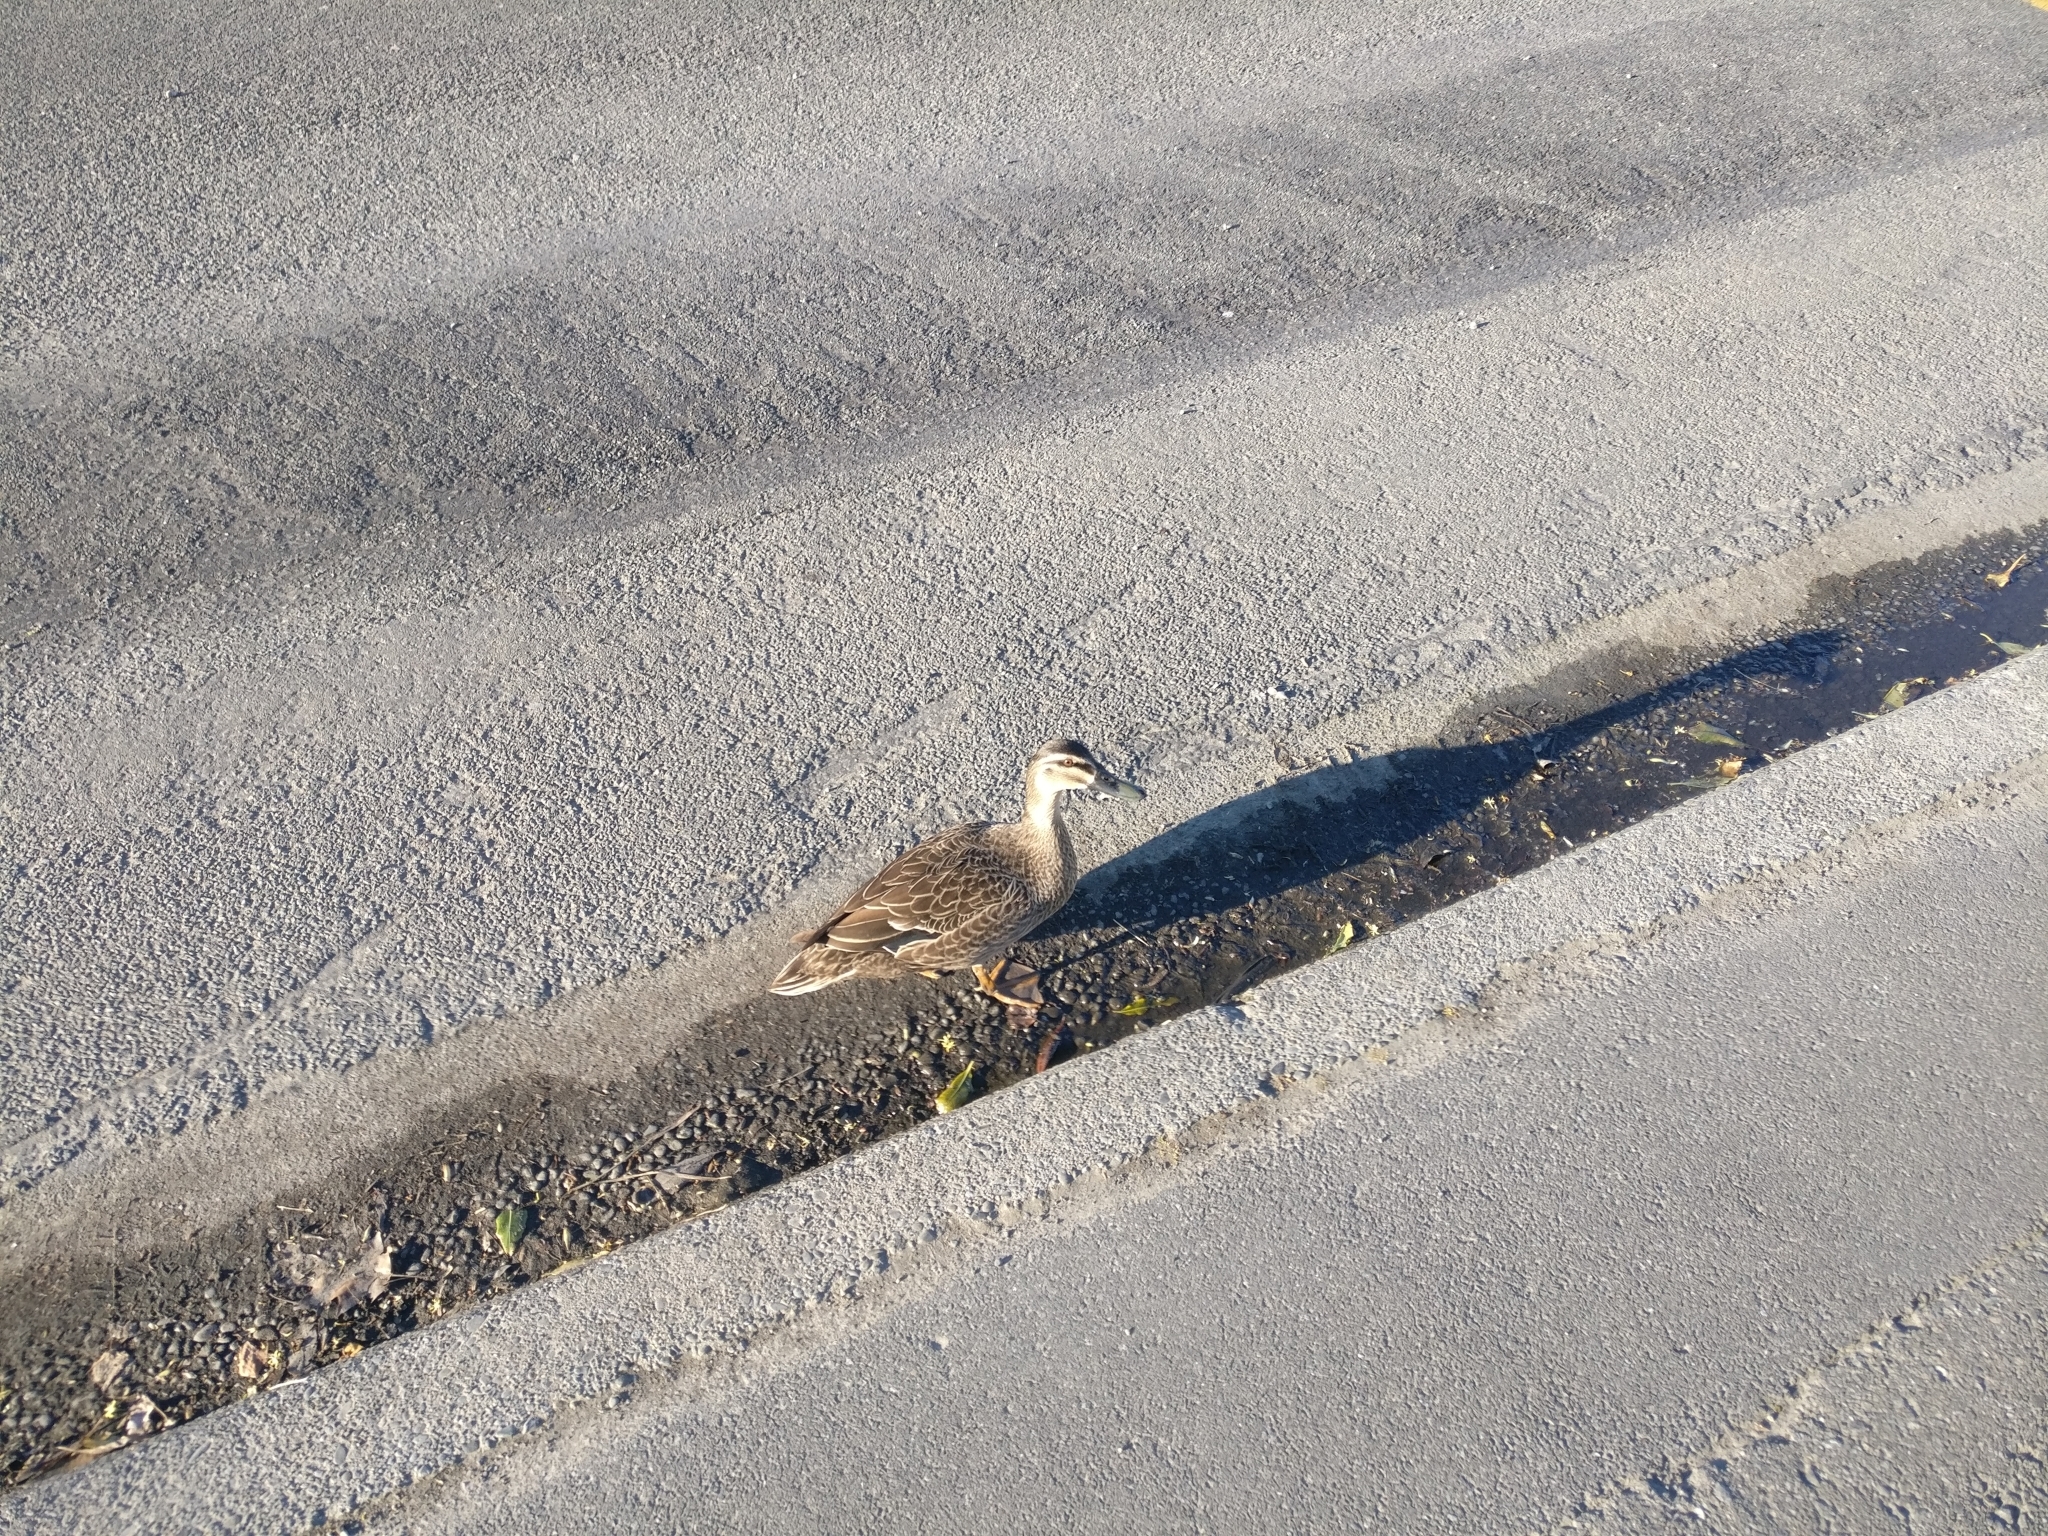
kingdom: Animalia
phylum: Chordata
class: Aves
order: Anseriformes
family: Anatidae
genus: Anas
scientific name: Anas
